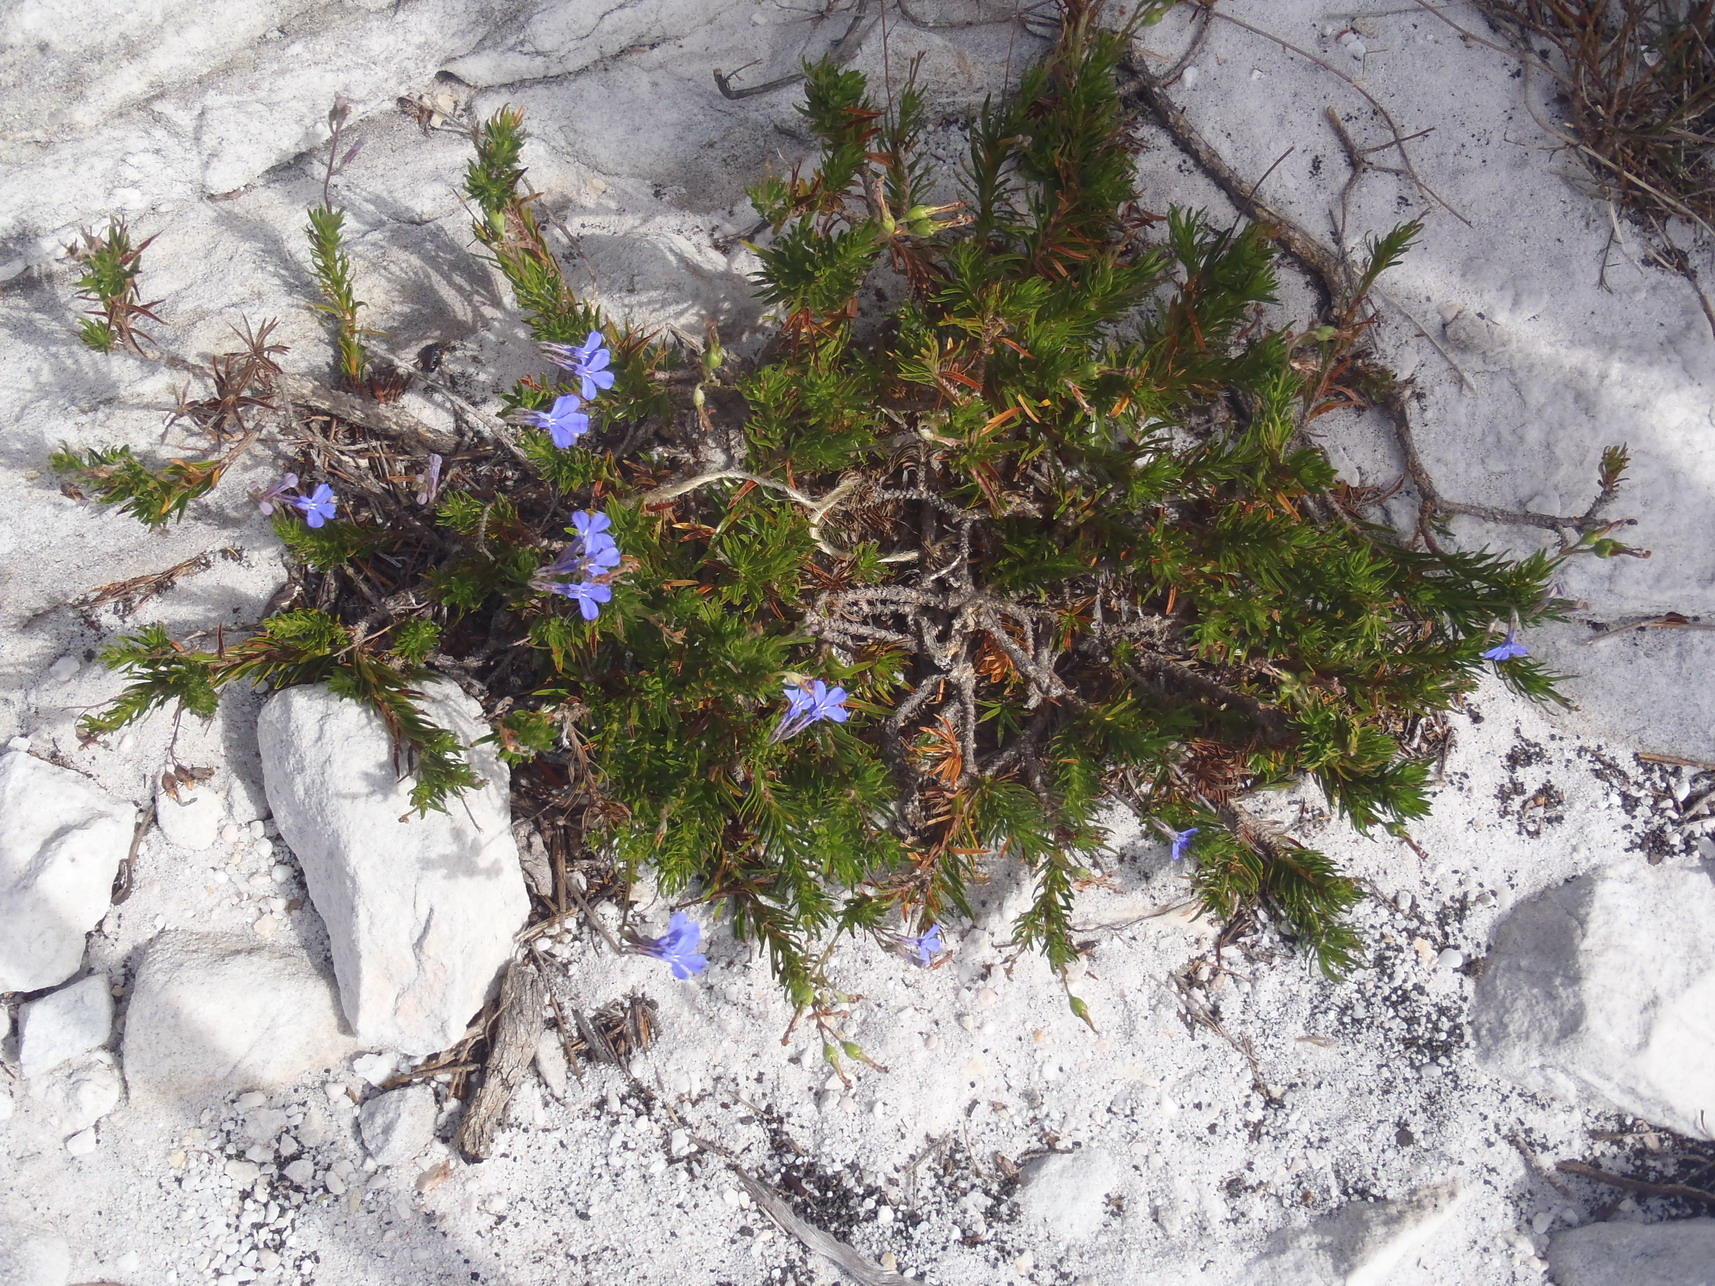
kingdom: Plantae
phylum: Tracheophyta
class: Magnoliopsida
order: Asterales
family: Campanulaceae
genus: Lobelia
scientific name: Lobelia pinifolia
